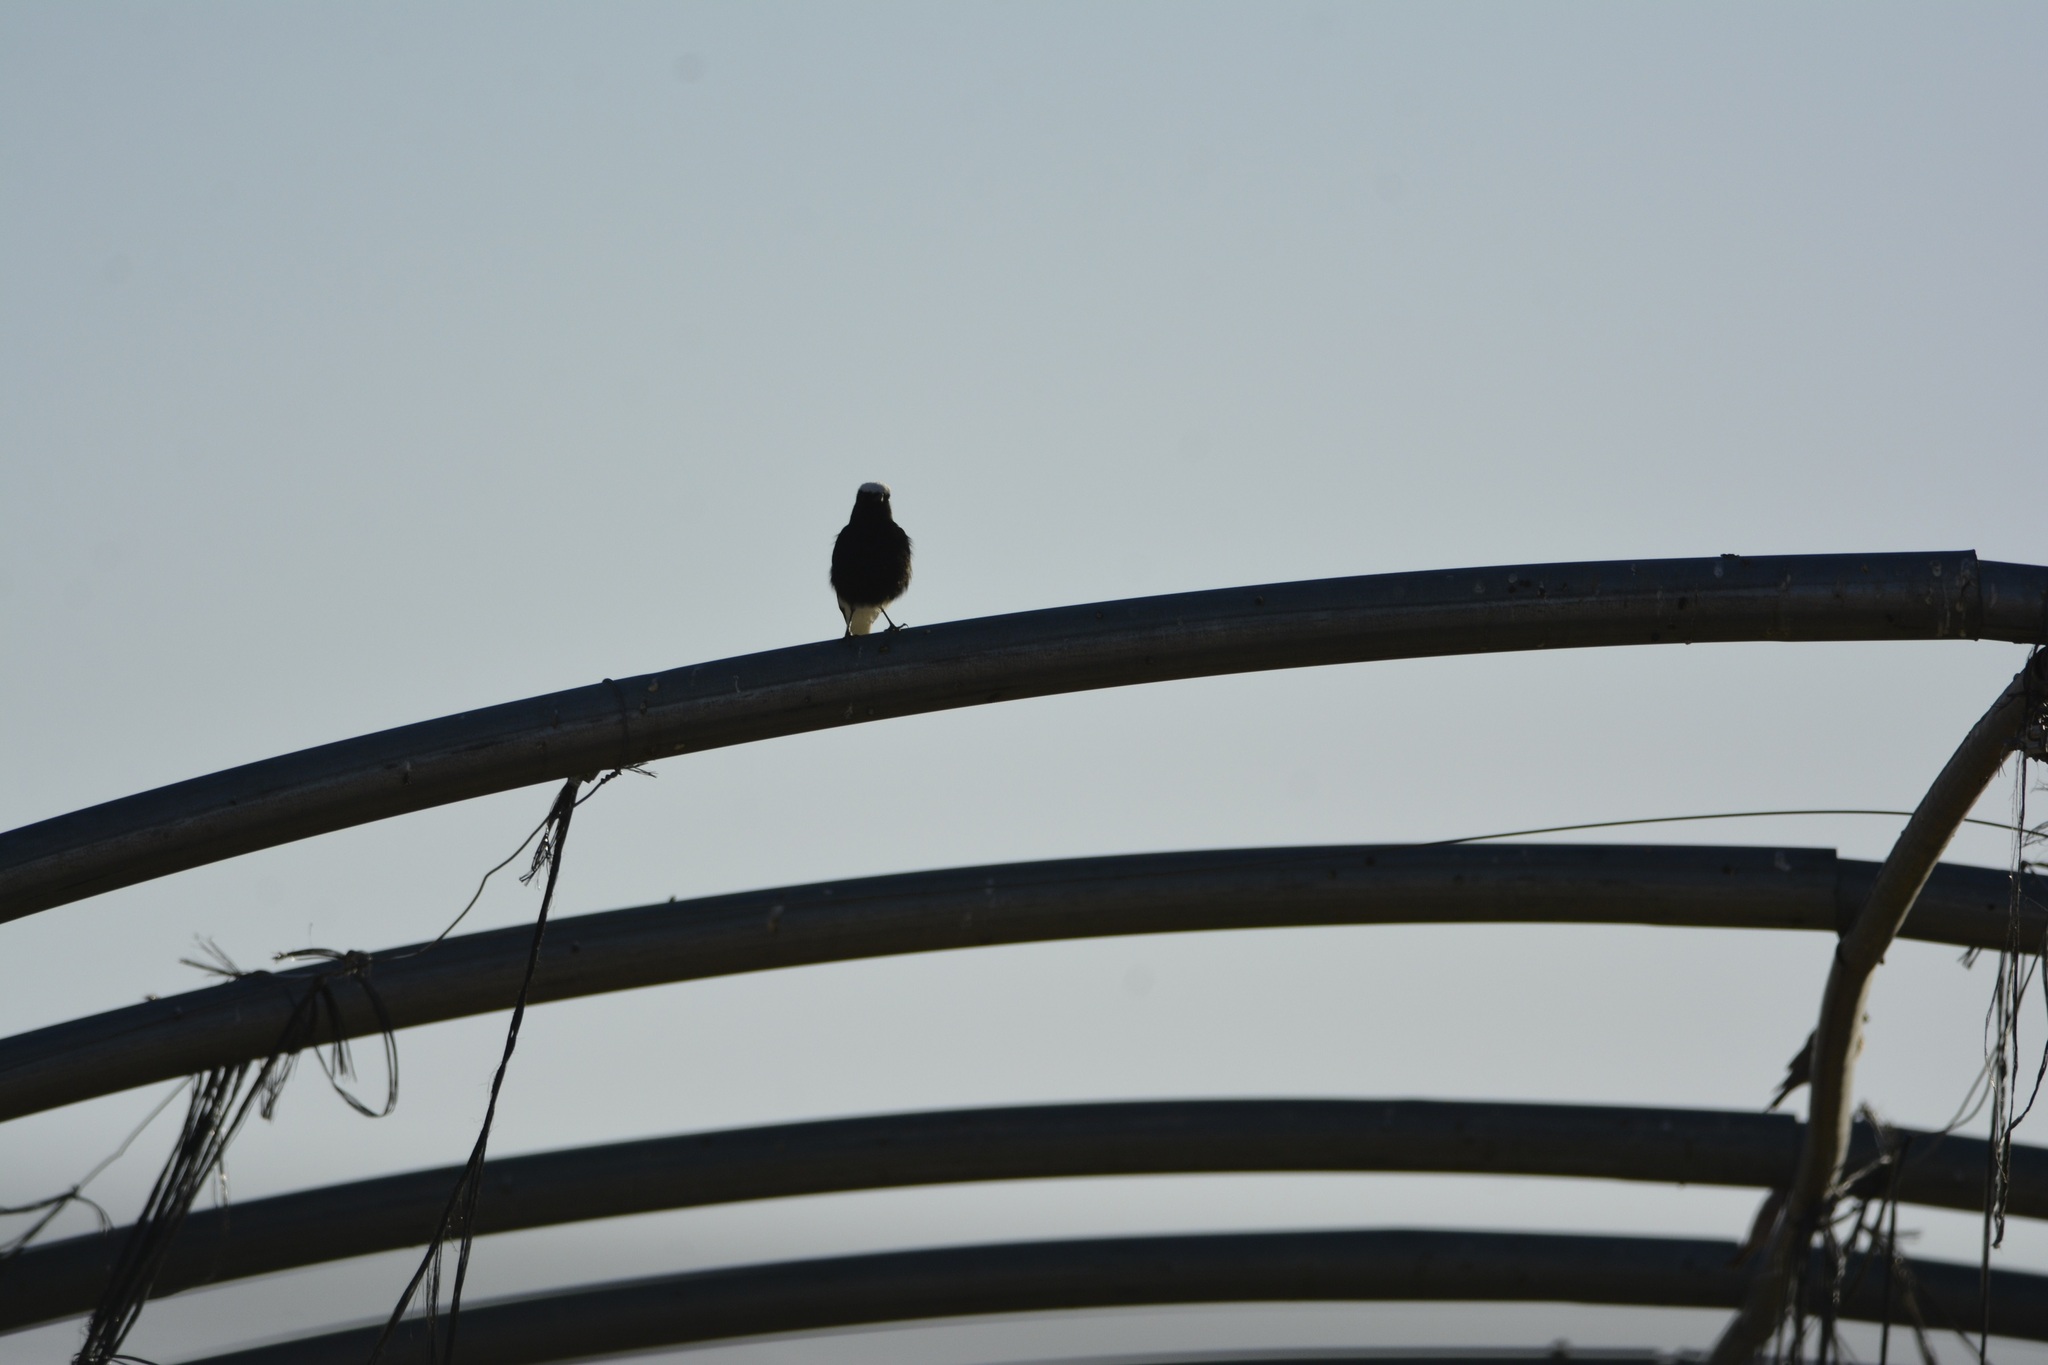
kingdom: Animalia
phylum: Chordata
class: Aves
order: Passeriformes
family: Muscicapidae
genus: Oenanthe
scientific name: Oenanthe leucopyga
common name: White-crowned wheatear
